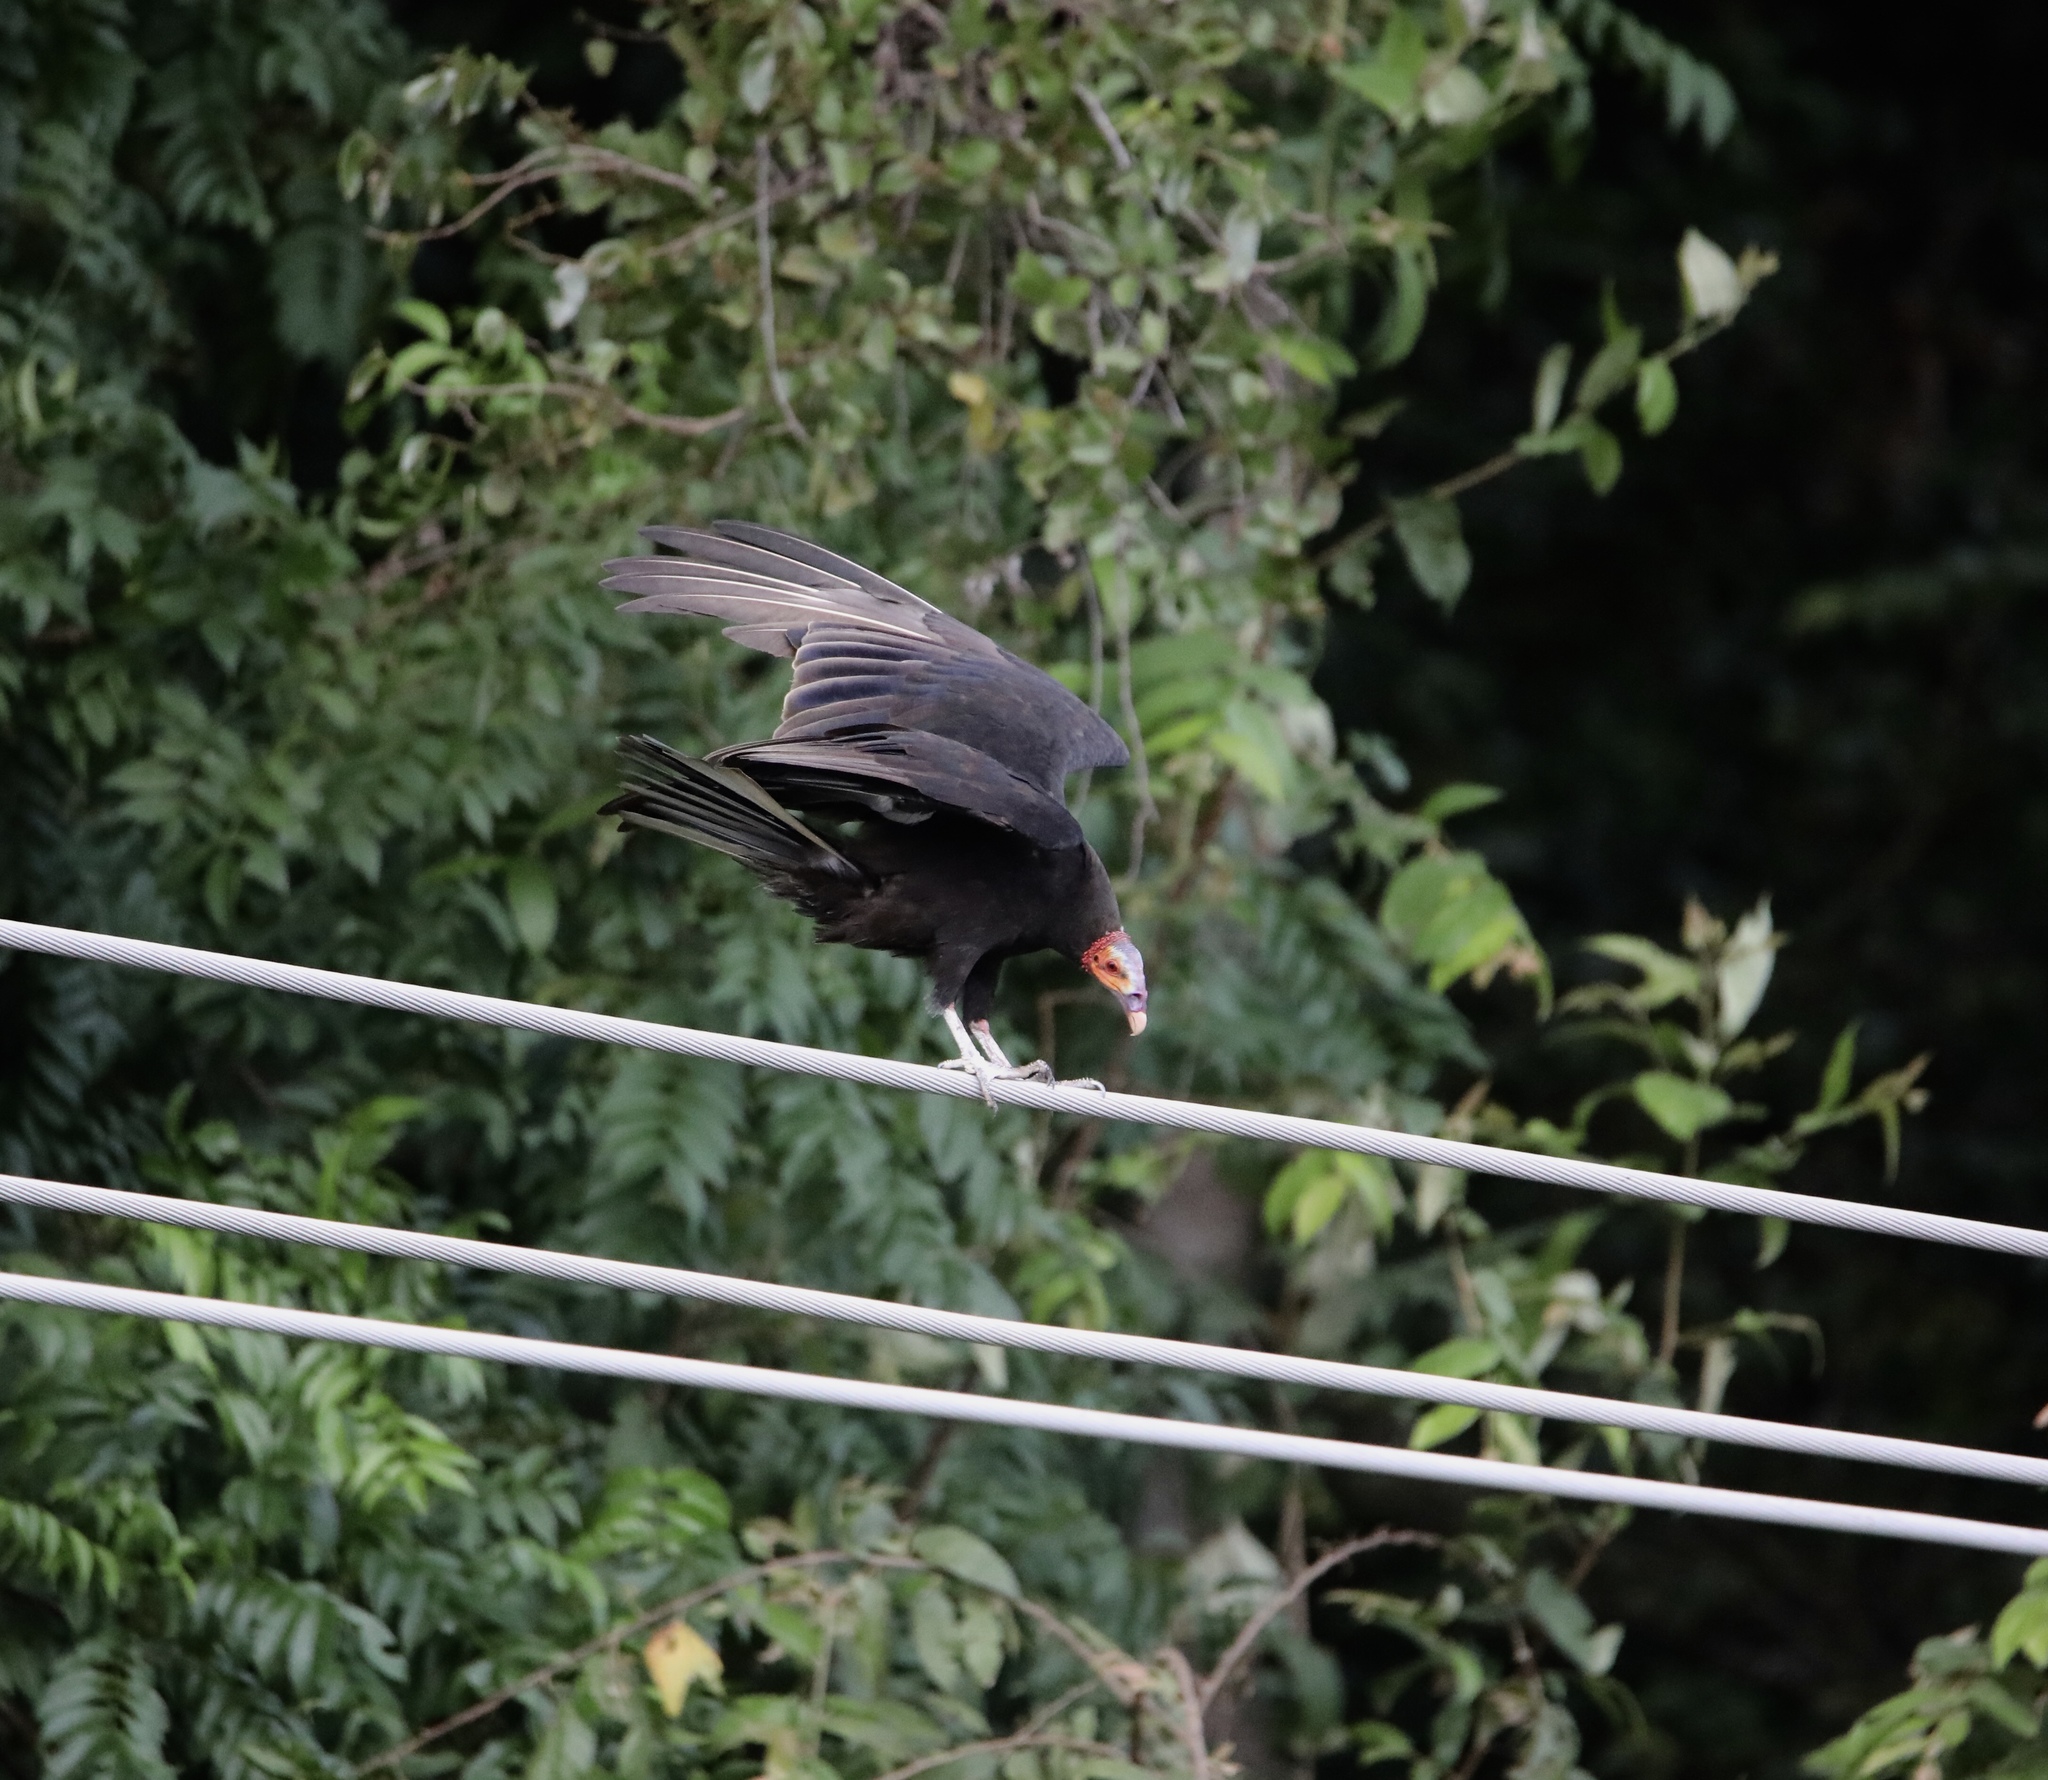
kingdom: Animalia
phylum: Chordata
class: Aves
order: Accipitriformes
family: Cathartidae
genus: Cathartes
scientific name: Cathartes burrovianus
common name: Lesser yellow-headed vulture
